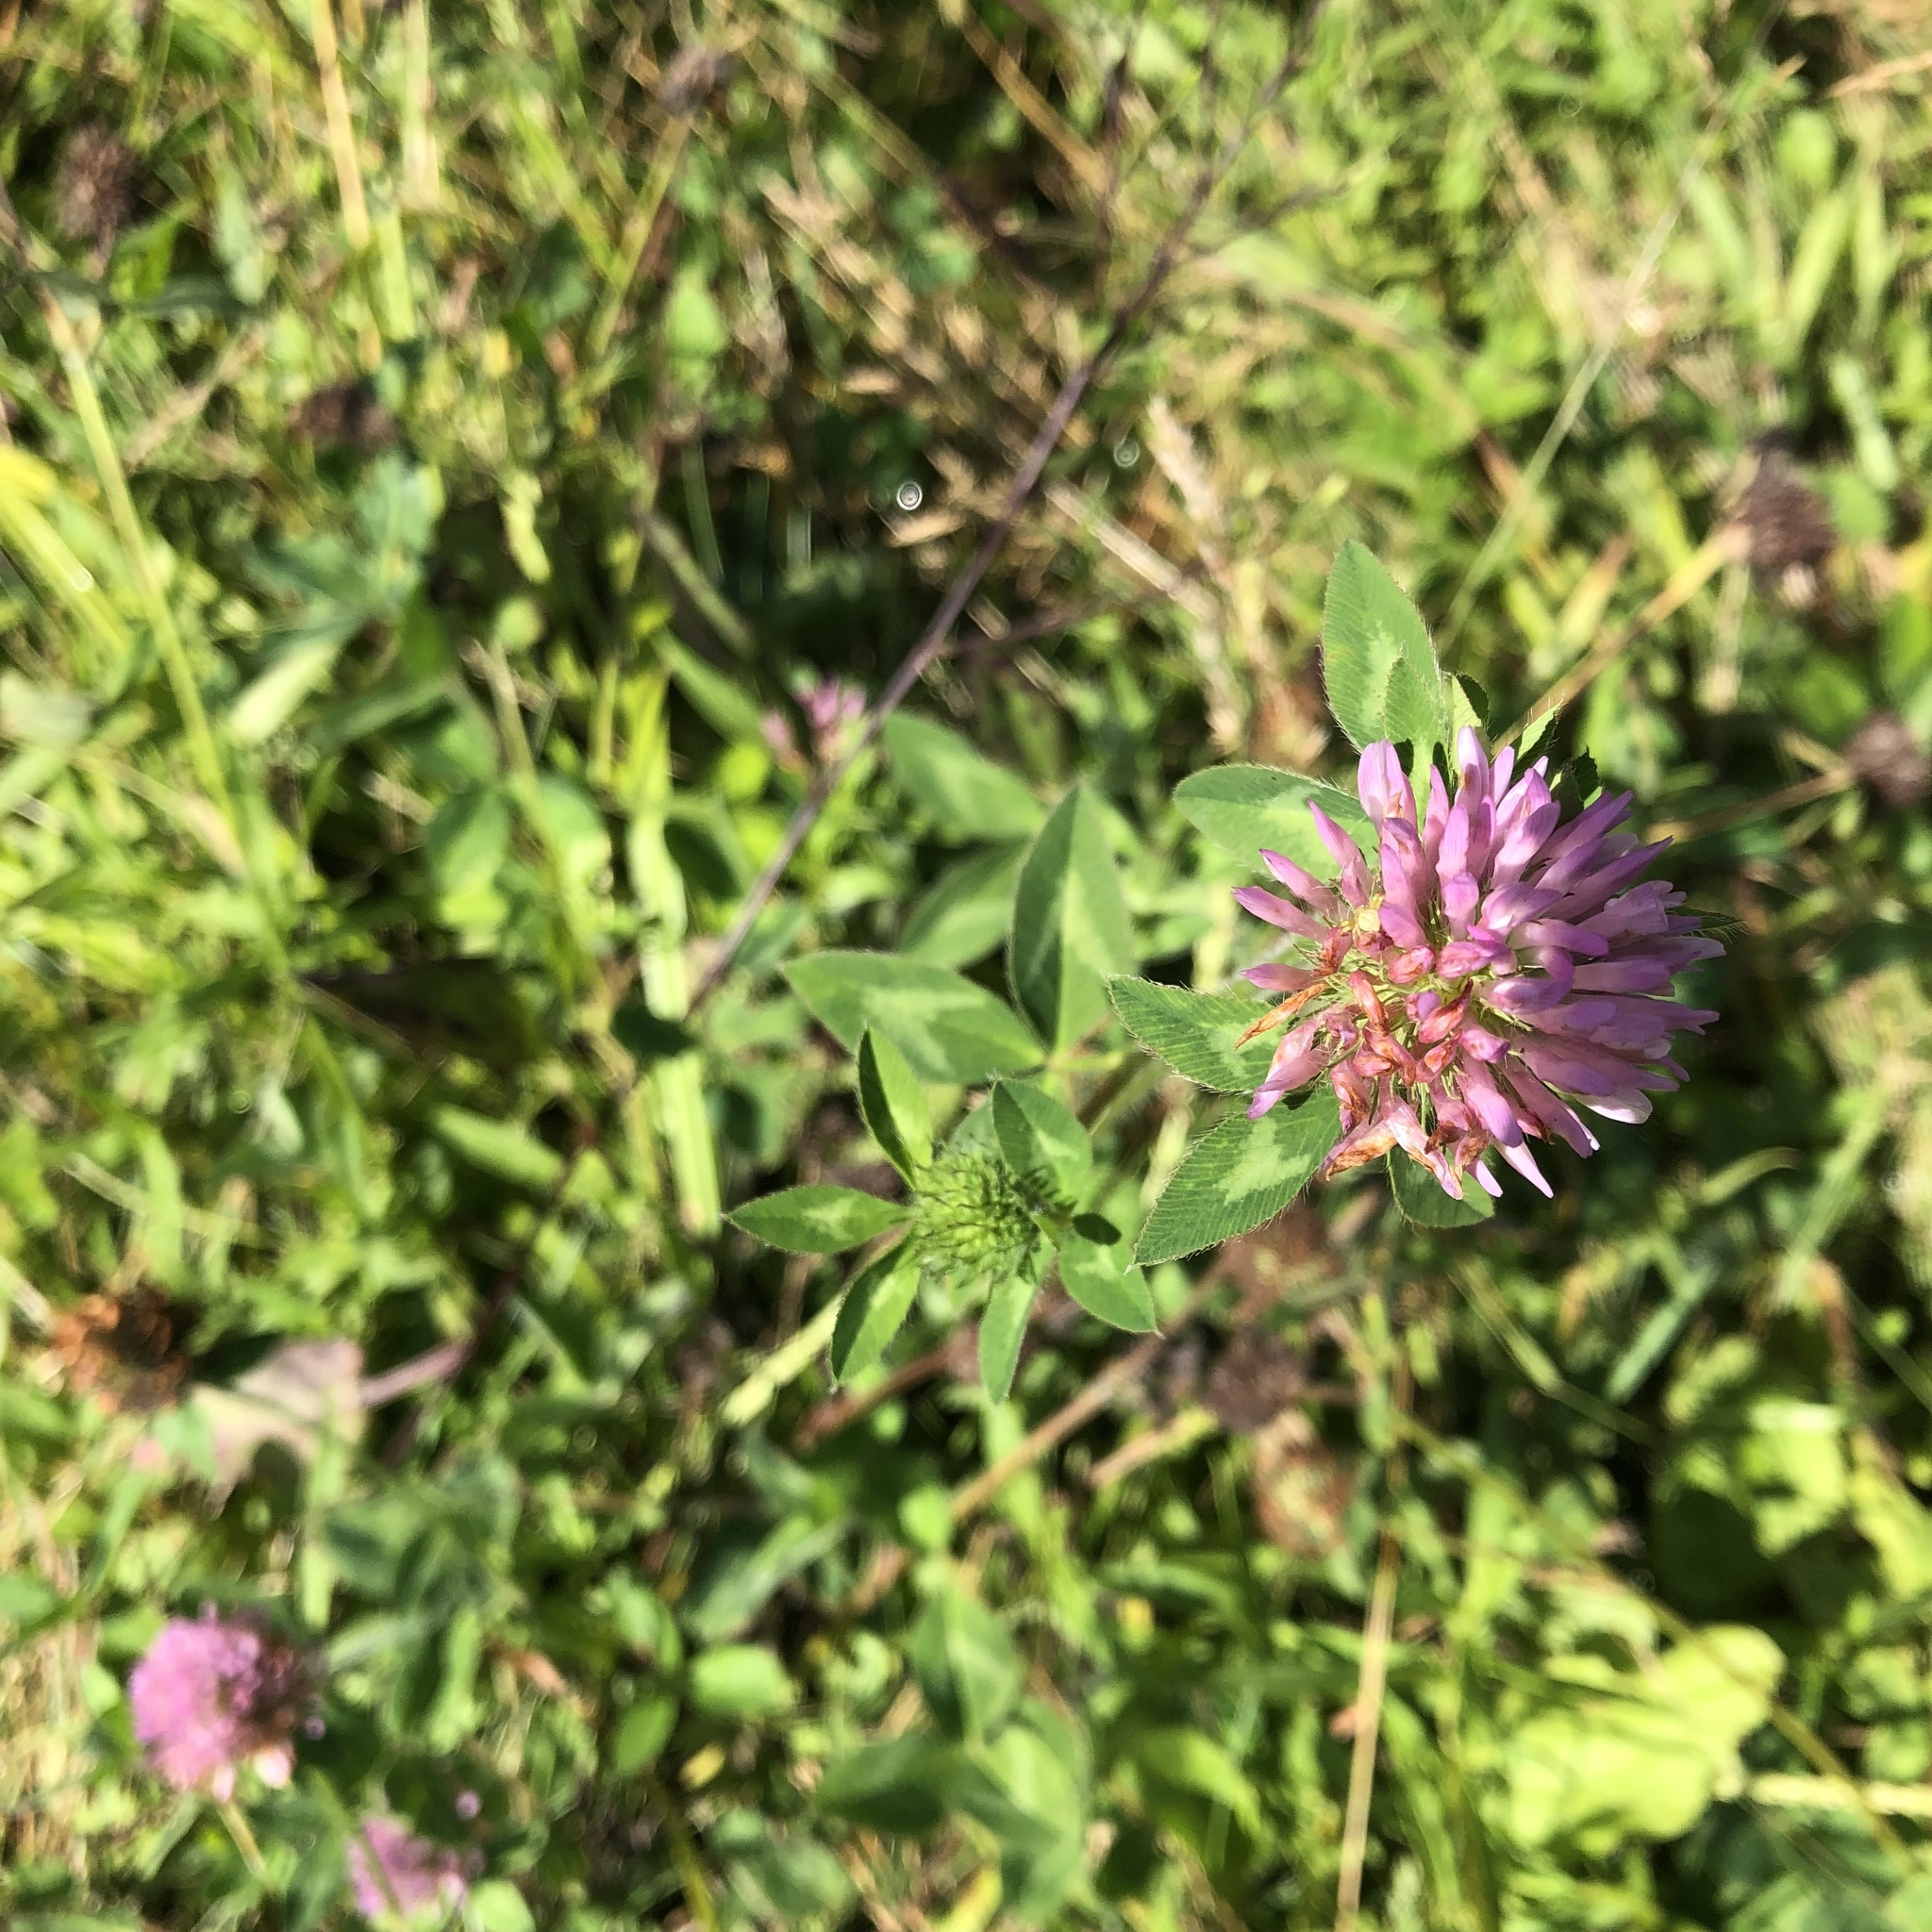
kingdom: Plantae
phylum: Tracheophyta
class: Magnoliopsida
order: Fabales
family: Fabaceae
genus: Trifolium
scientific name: Trifolium pratense
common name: Red clover
